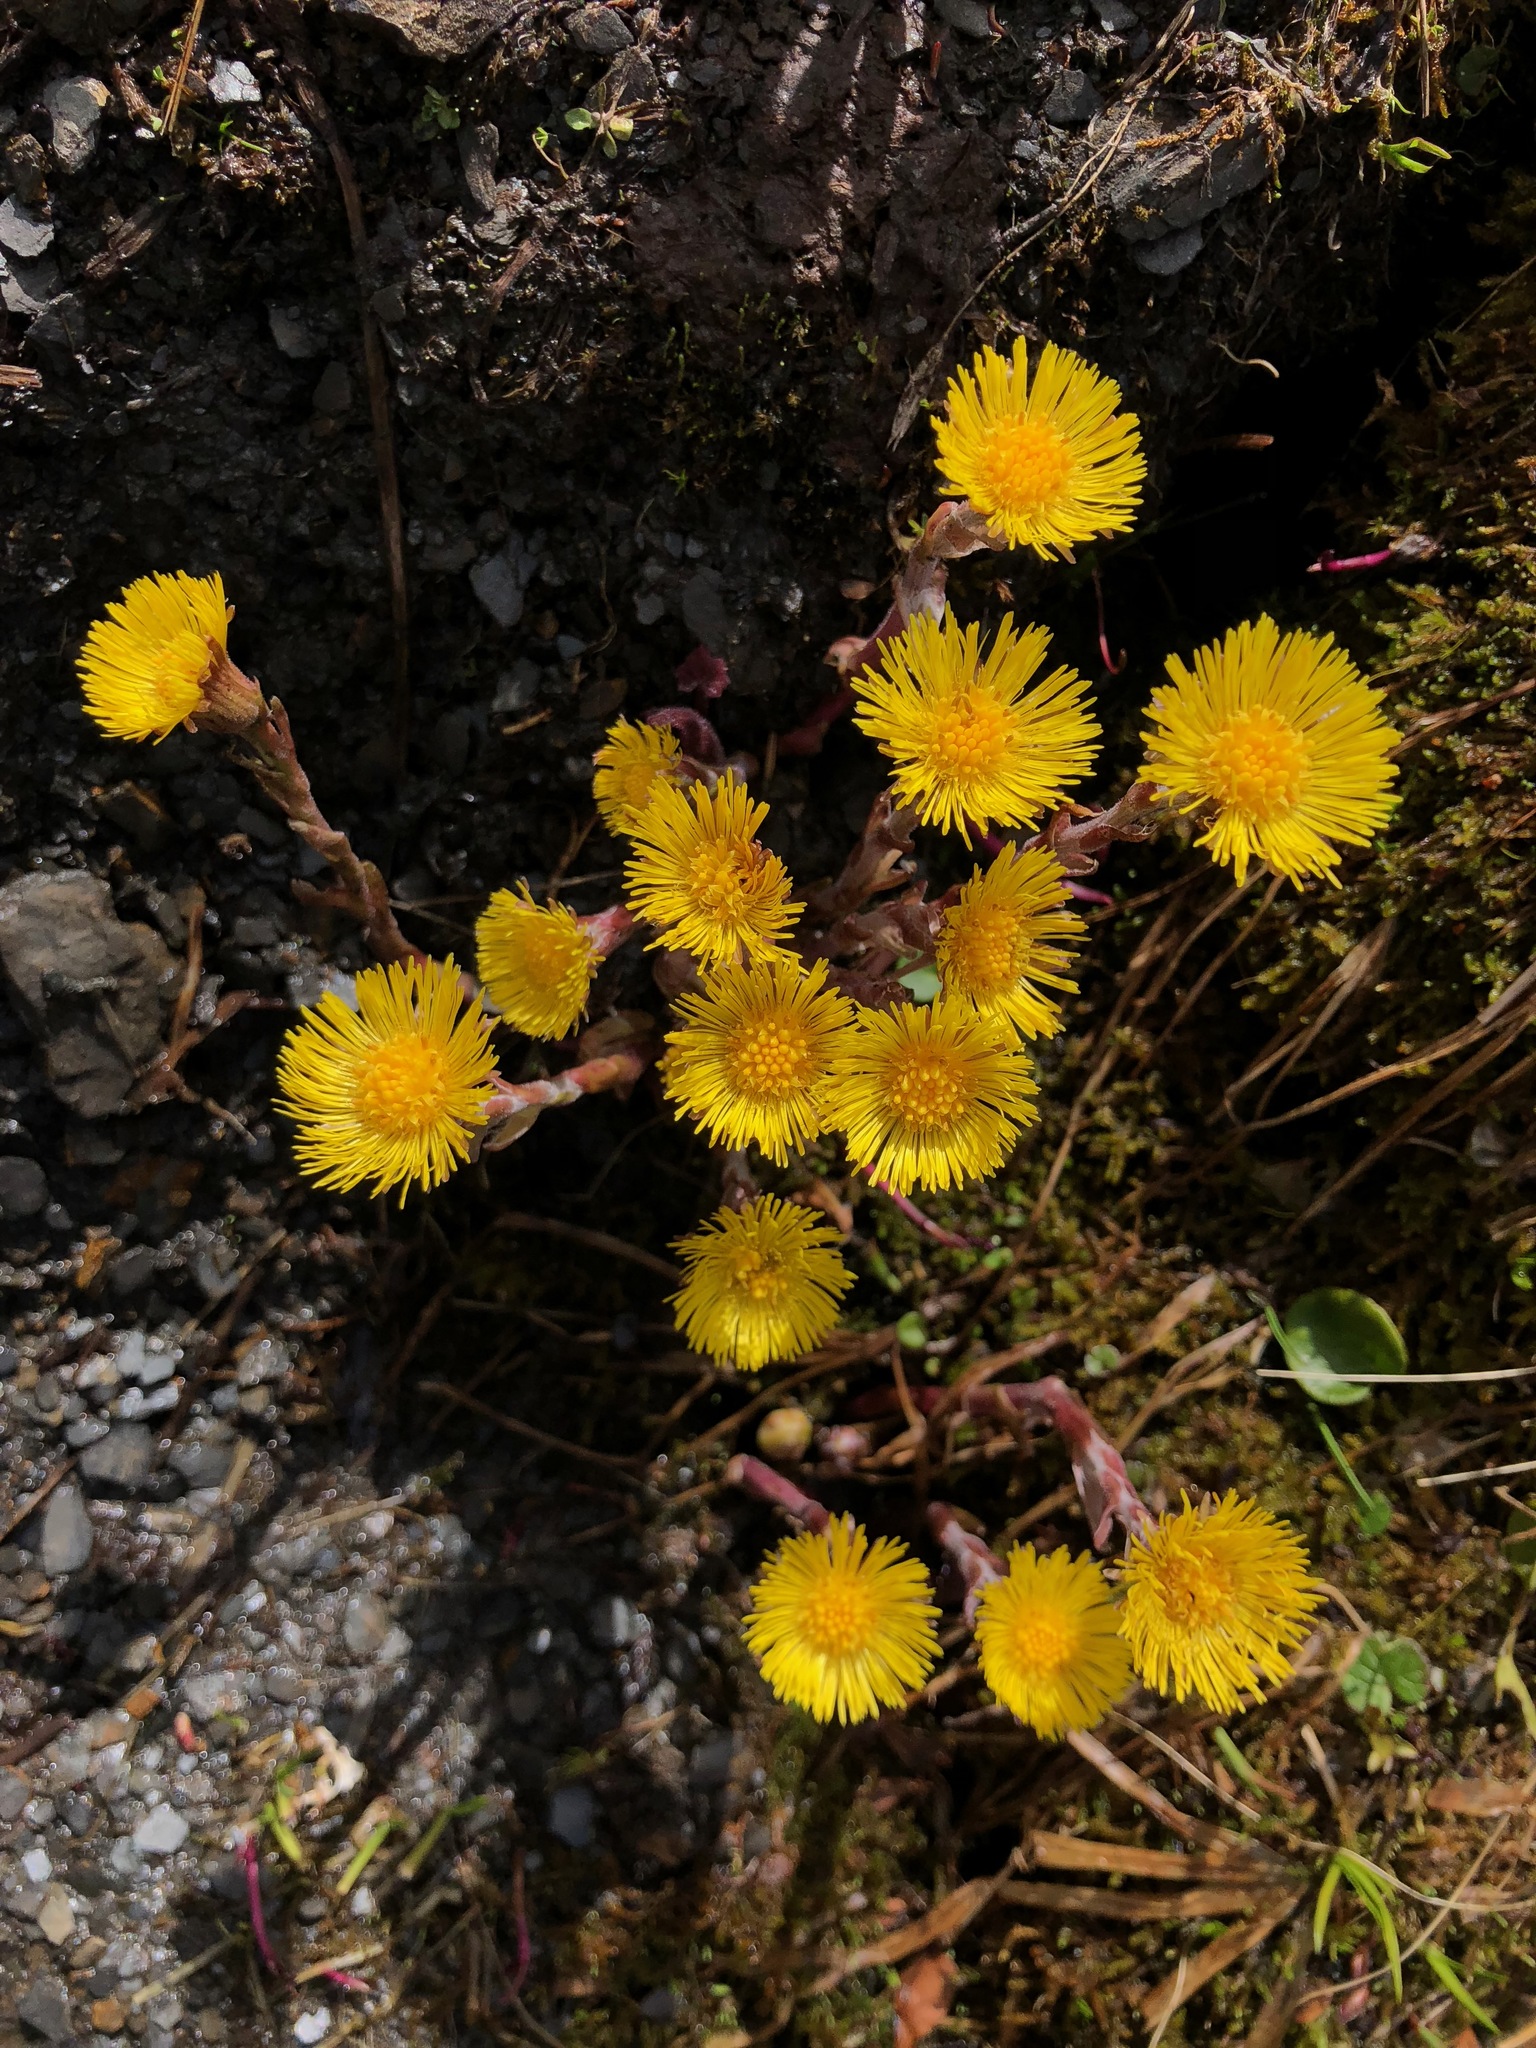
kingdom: Plantae
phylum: Tracheophyta
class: Magnoliopsida
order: Asterales
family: Asteraceae
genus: Tussilago
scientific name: Tussilago farfara
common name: Coltsfoot
